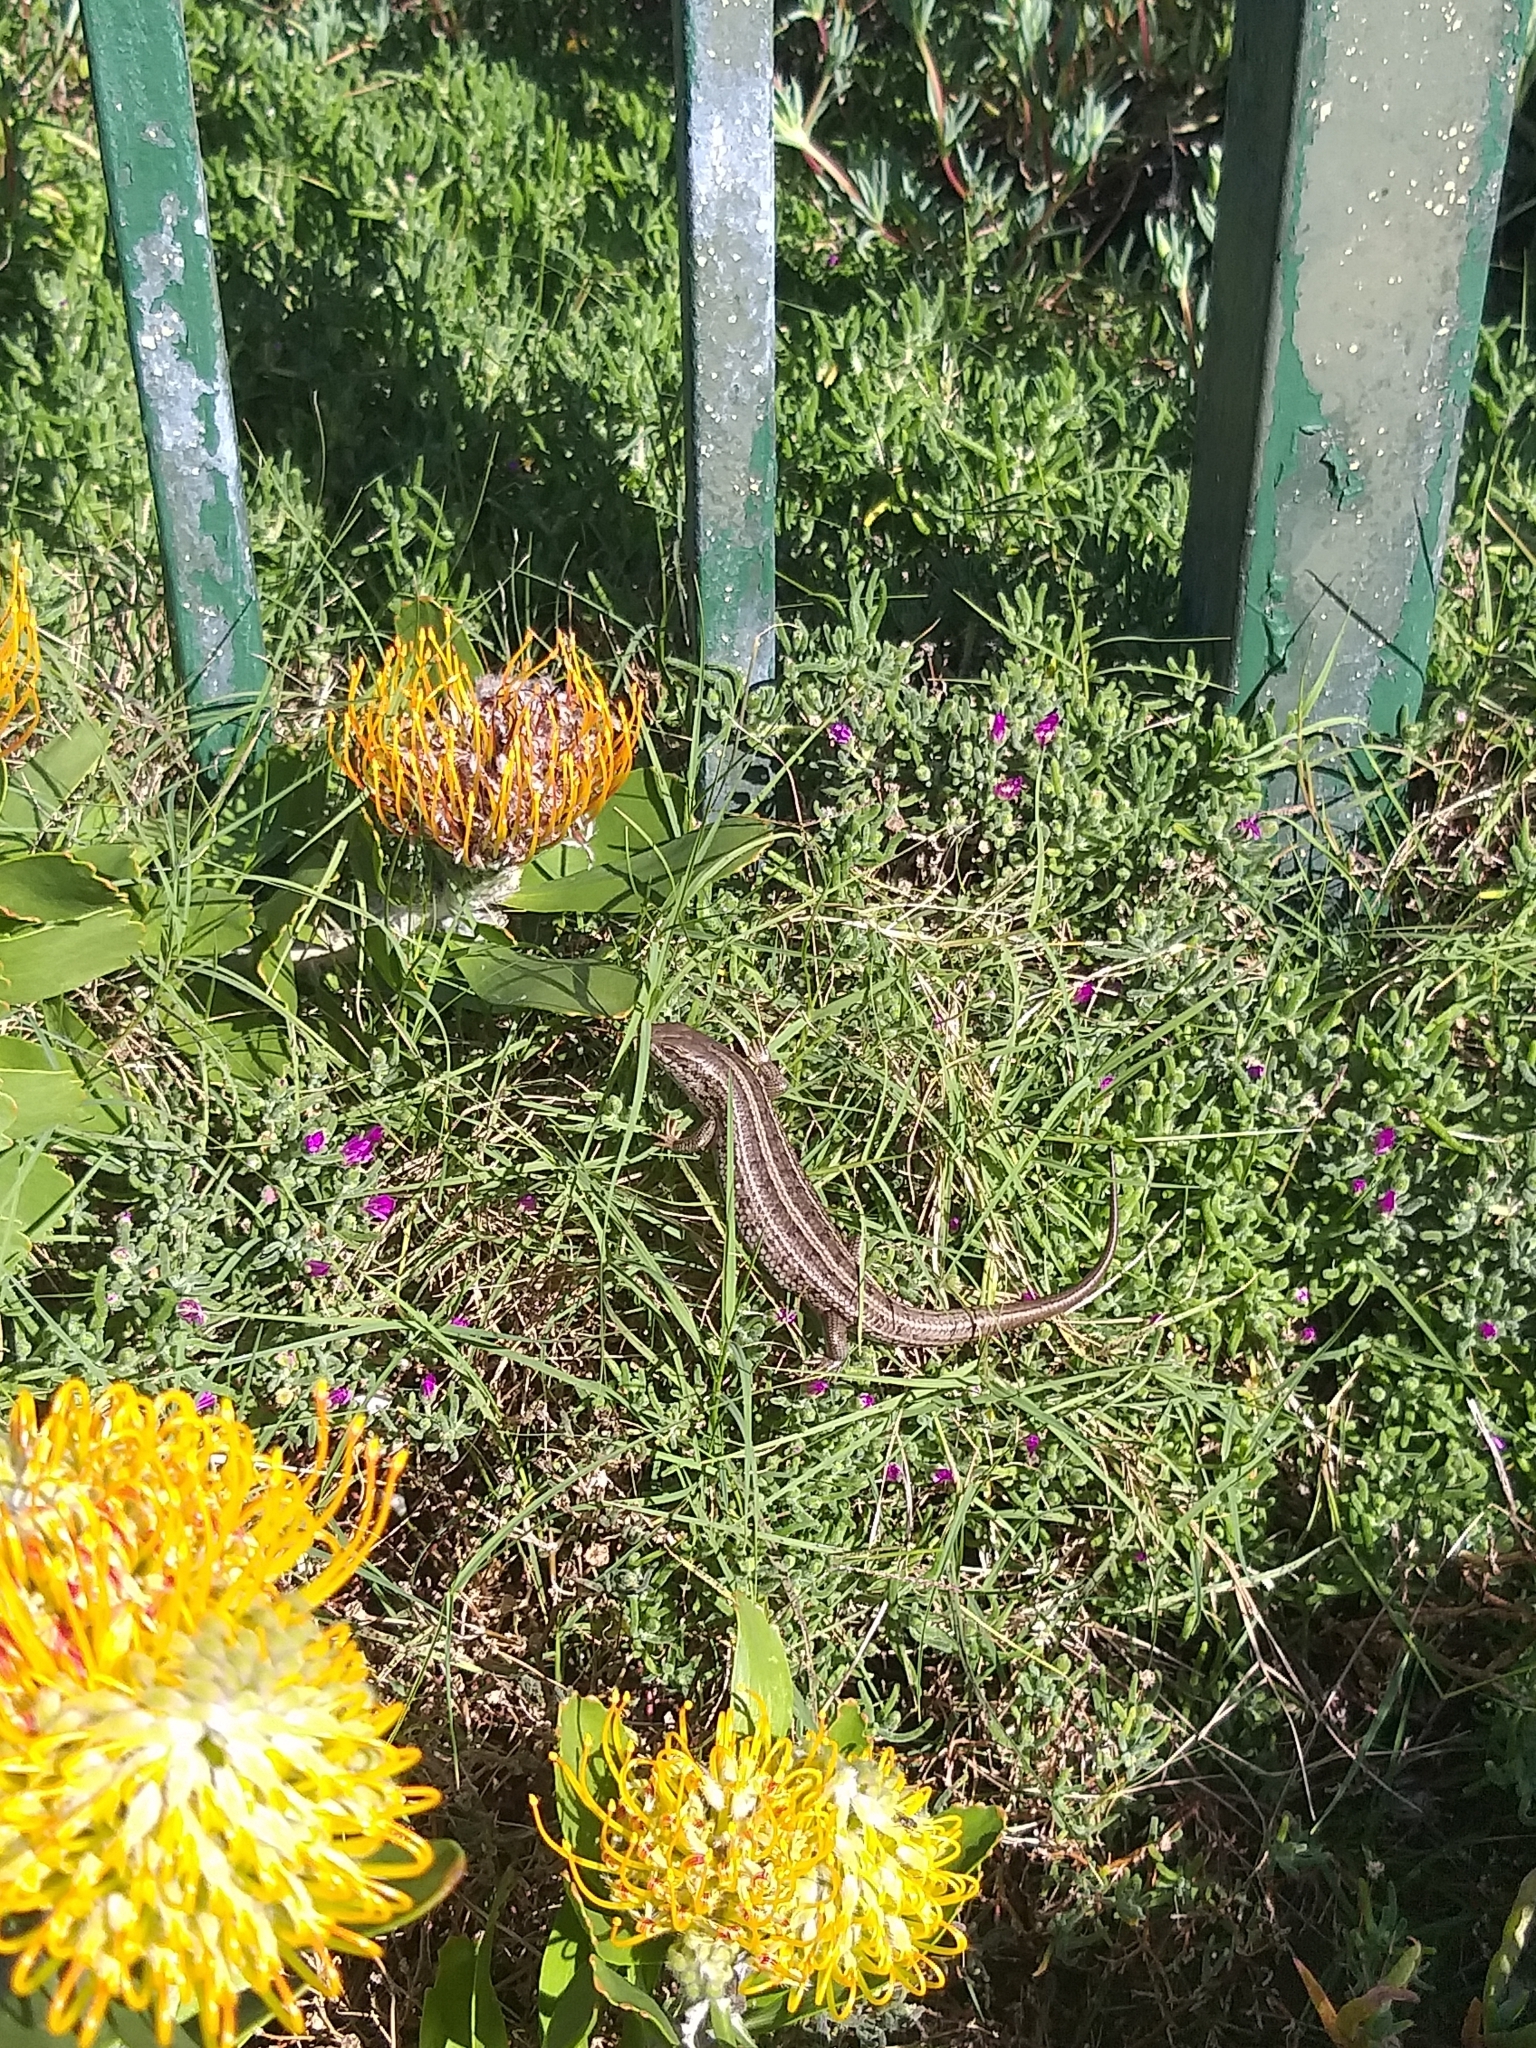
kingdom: Animalia
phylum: Chordata
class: Squamata
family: Scincidae
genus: Trachylepis
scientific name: Trachylepis capensis
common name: Cape skink
